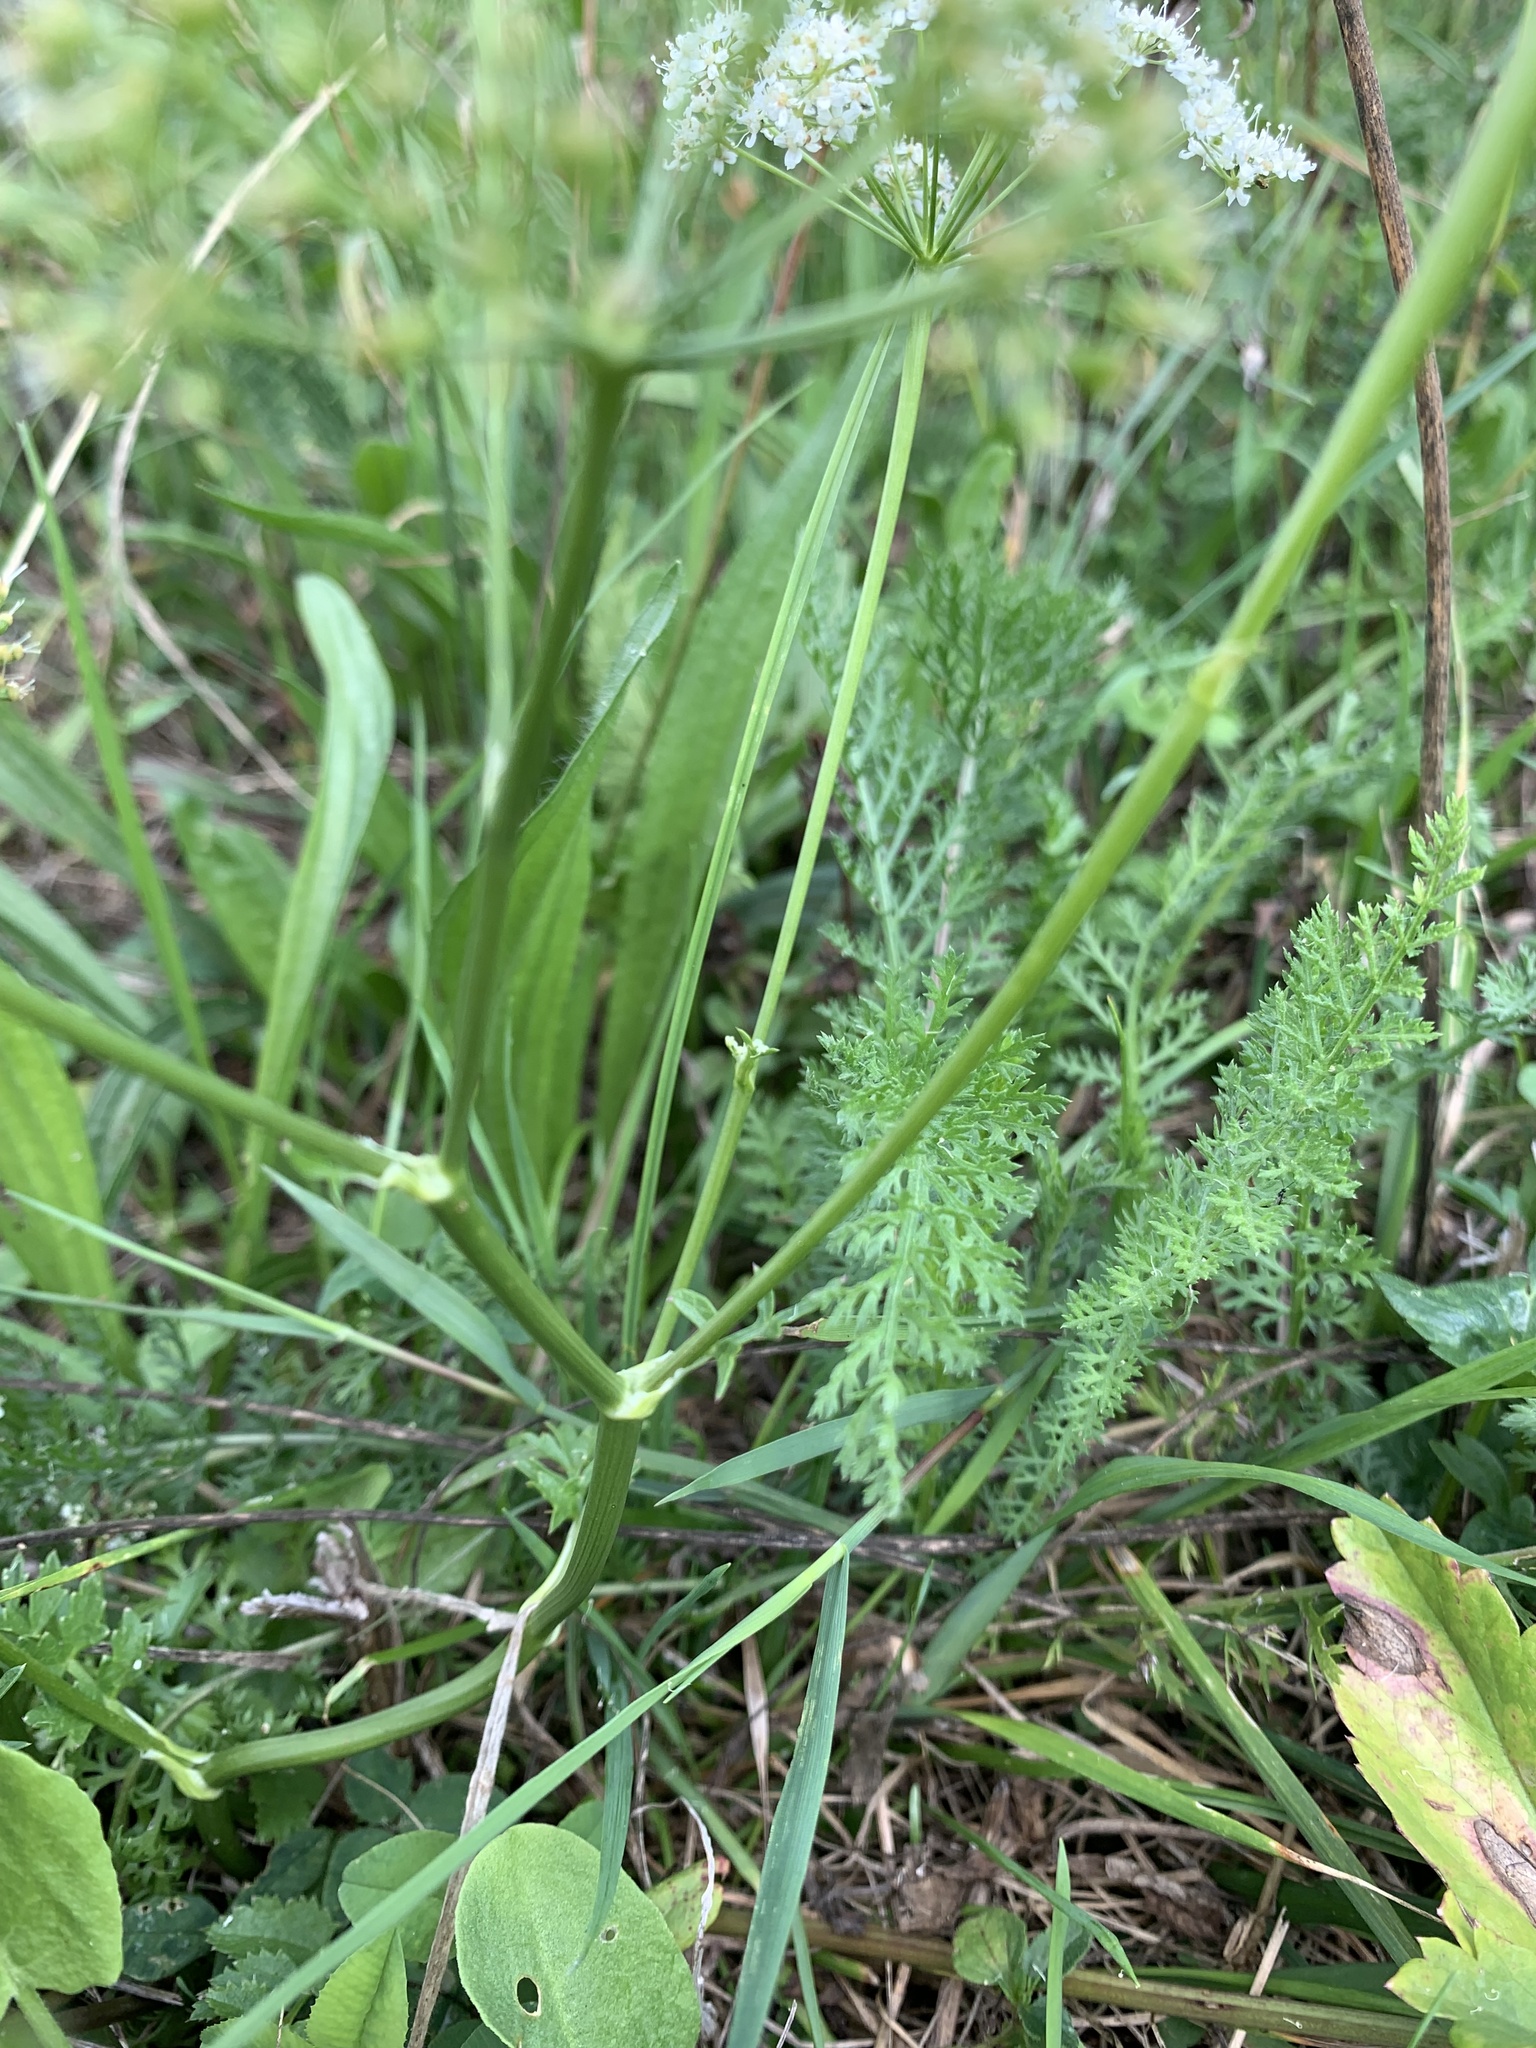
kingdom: Plantae
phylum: Tracheophyta
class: Magnoliopsida
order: Apiales
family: Apiaceae
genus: Pimpinella
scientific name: Pimpinella saxifraga
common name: Burnet-saxifrage
